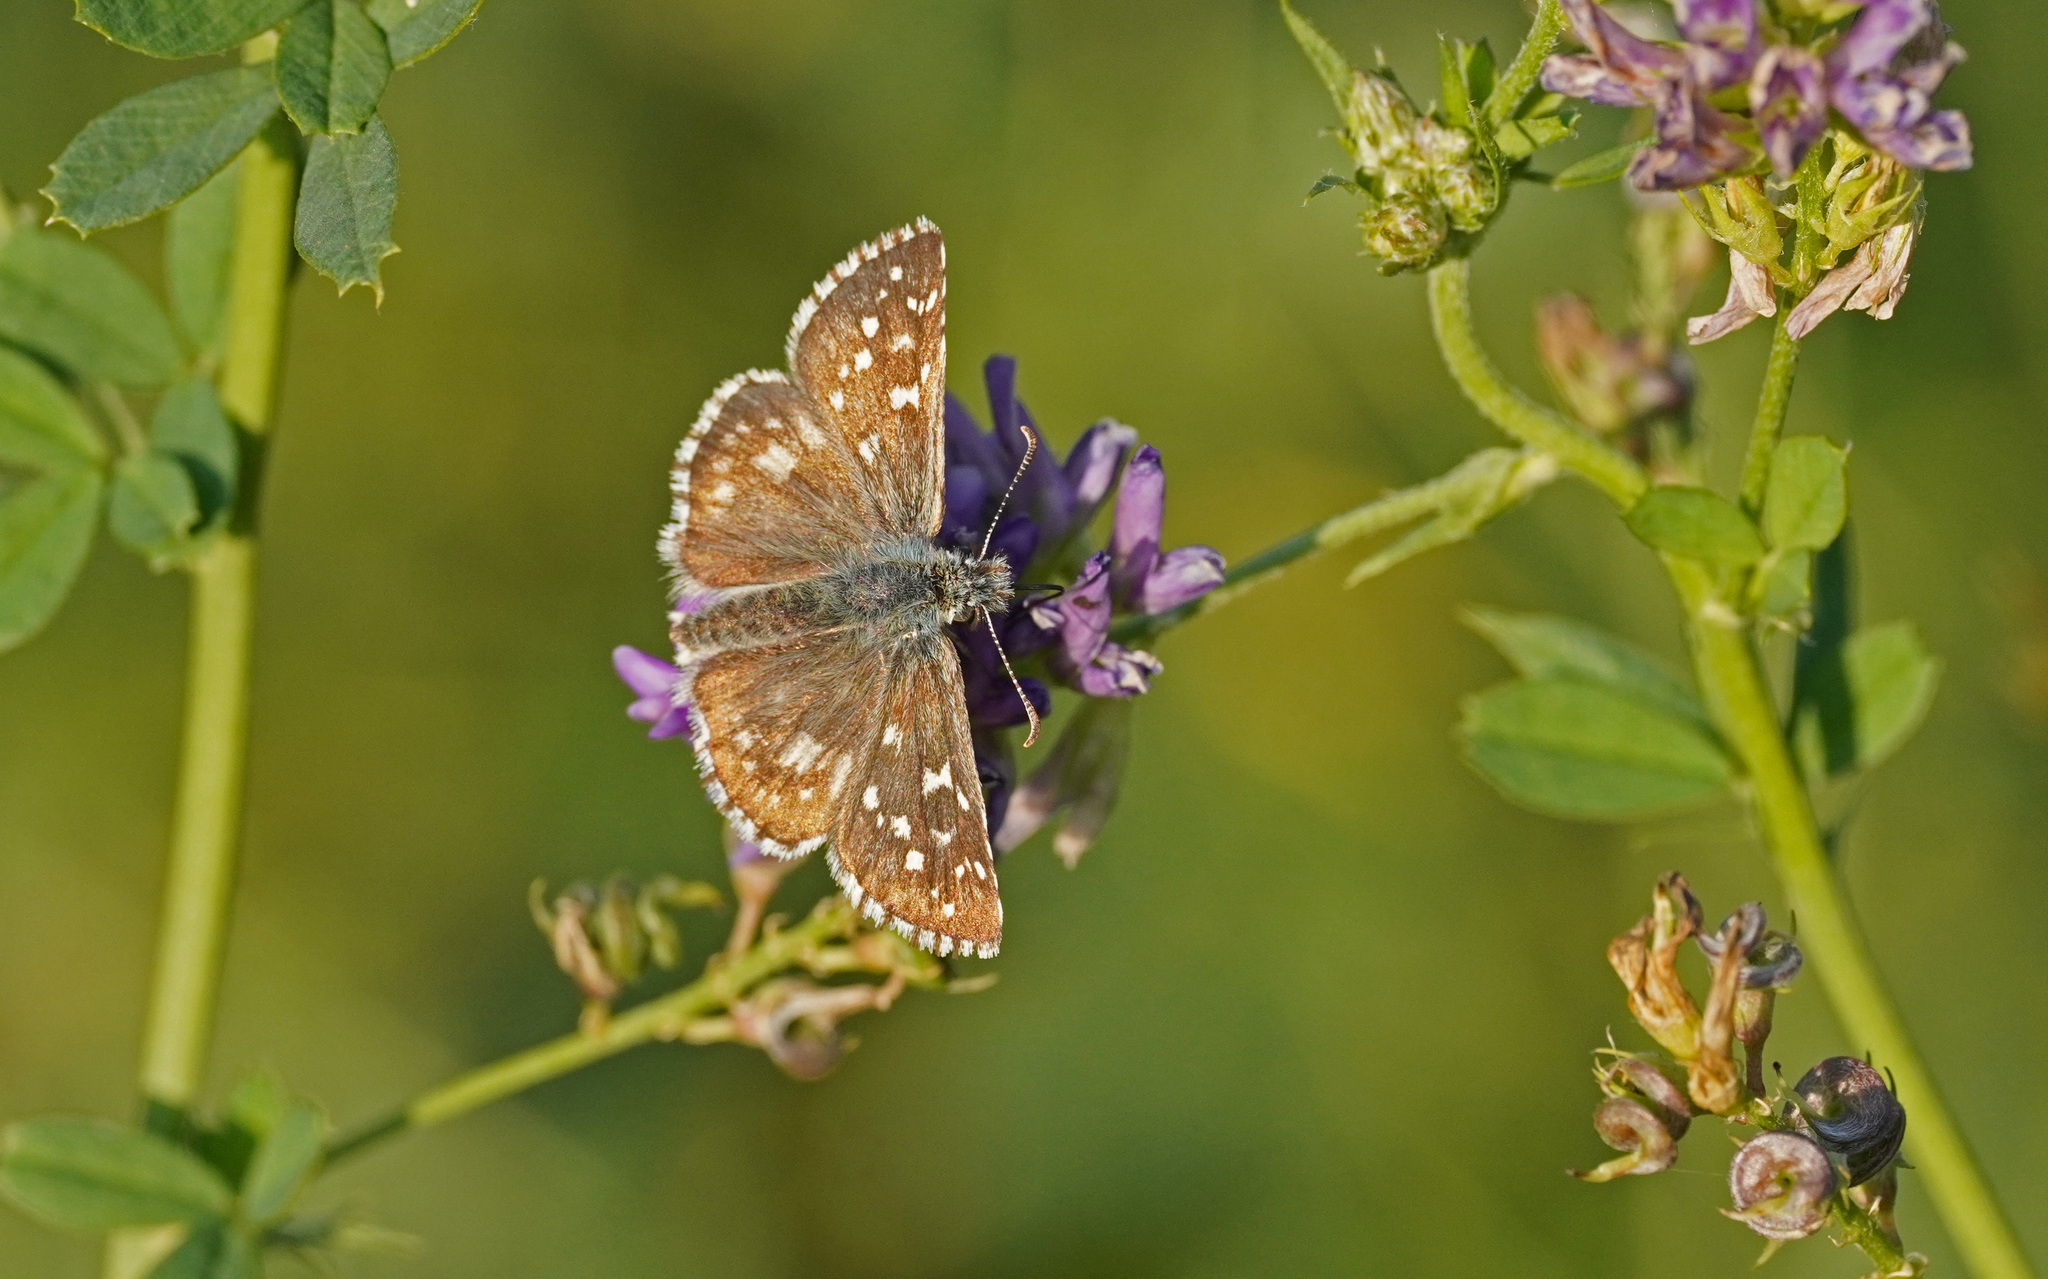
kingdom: Animalia
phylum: Arthropoda
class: Insecta
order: Lepidoptera
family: Hesperiidae
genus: Pyrgus
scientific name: Pyrgus armoricanus
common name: Oberthür's grizzled skipper
